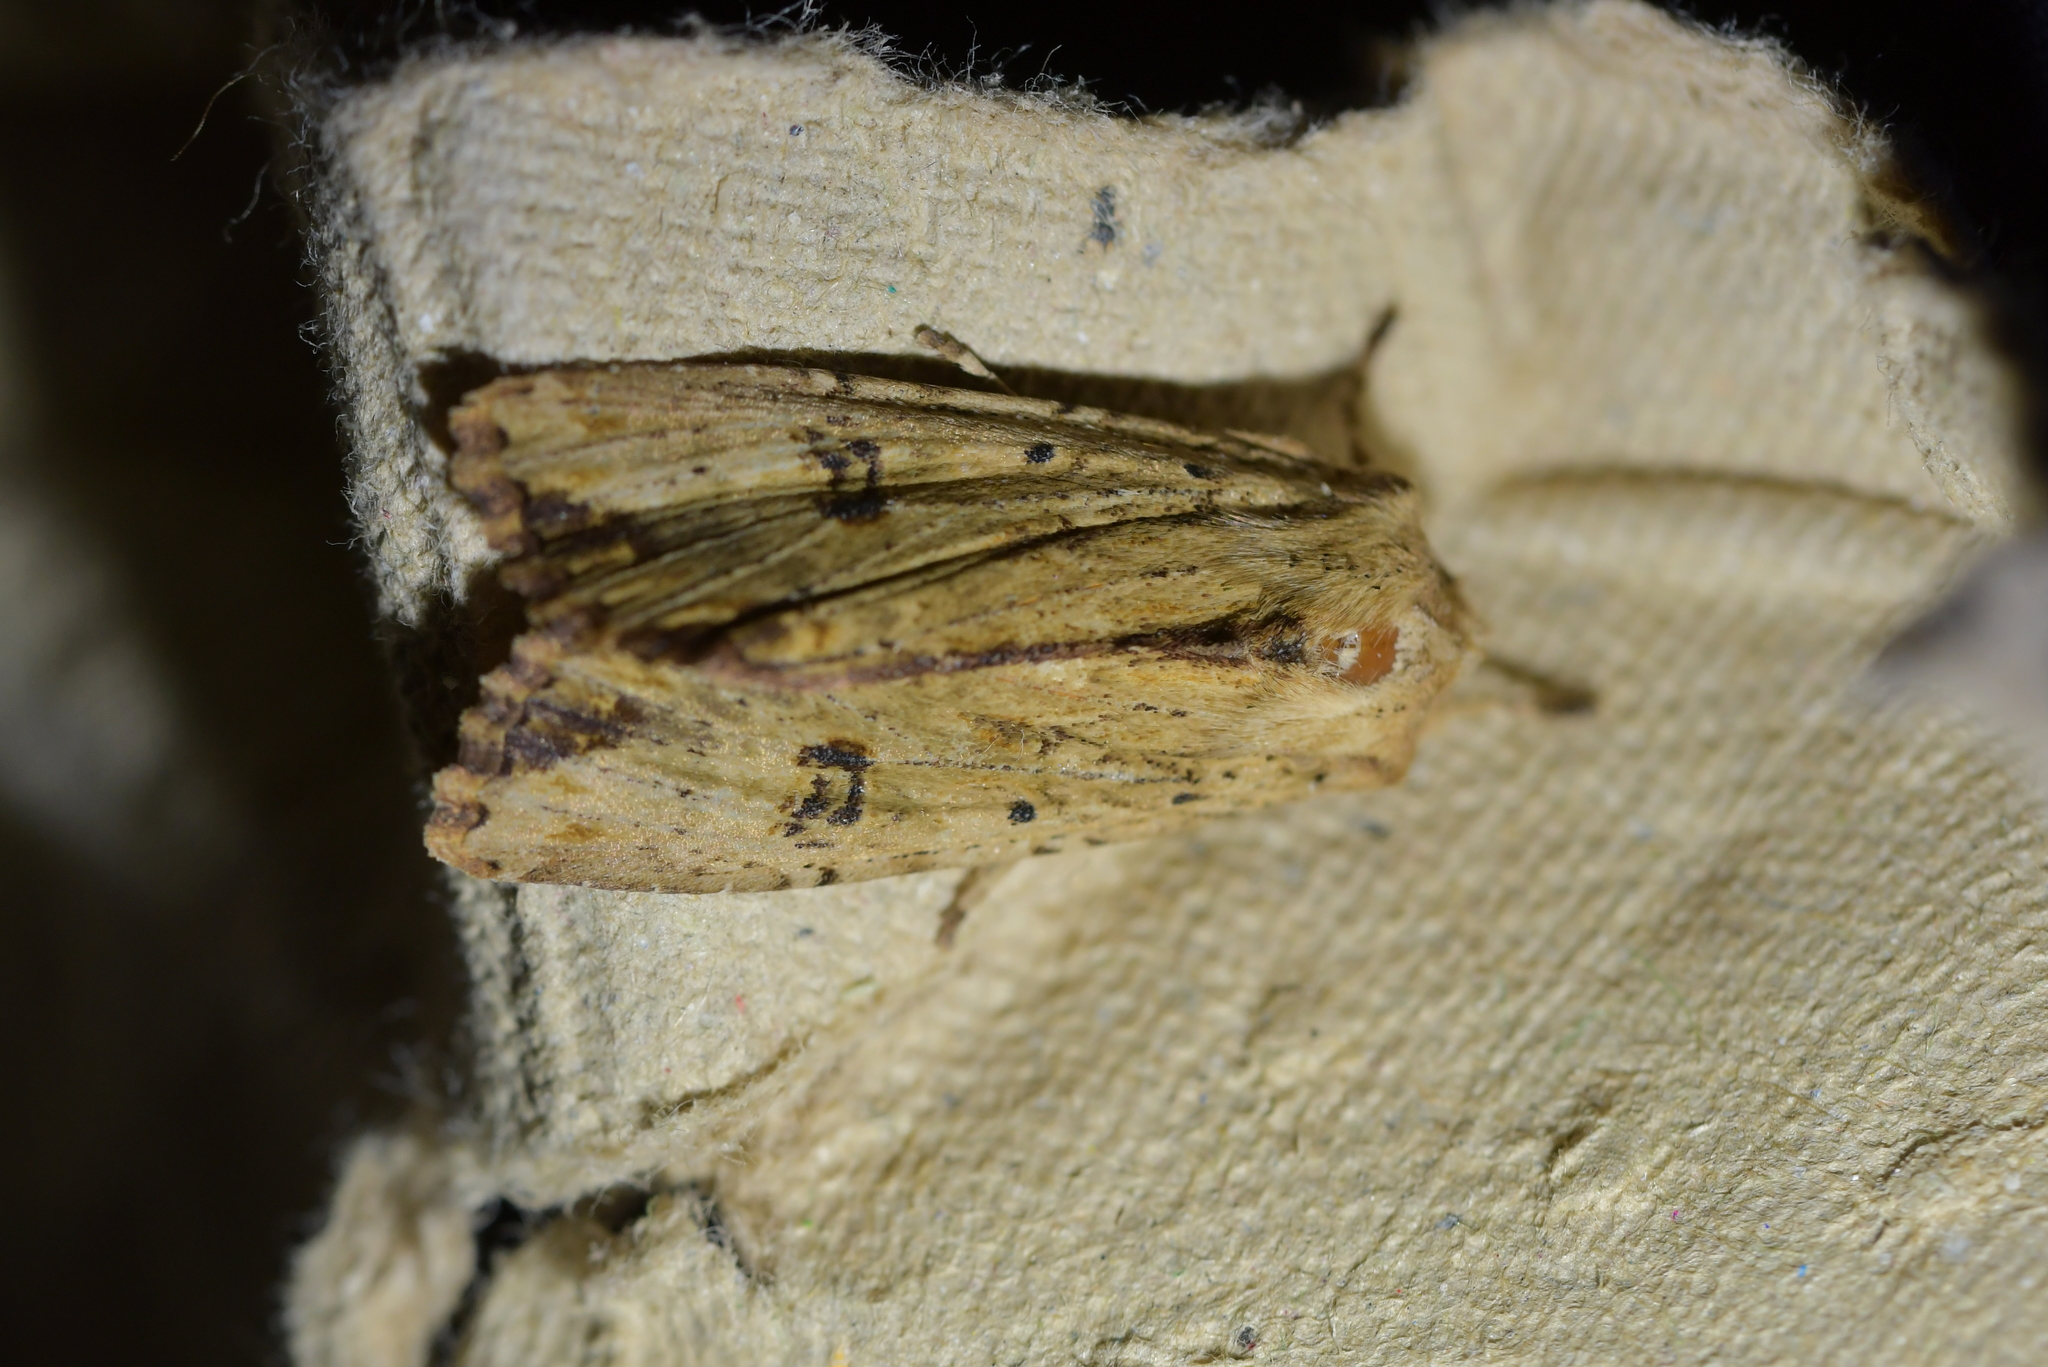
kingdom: Animalia
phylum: Arthropoda
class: Insecta
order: Lepidoptera
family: Noctuidae
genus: Ichneutica
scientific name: Ichneutica
